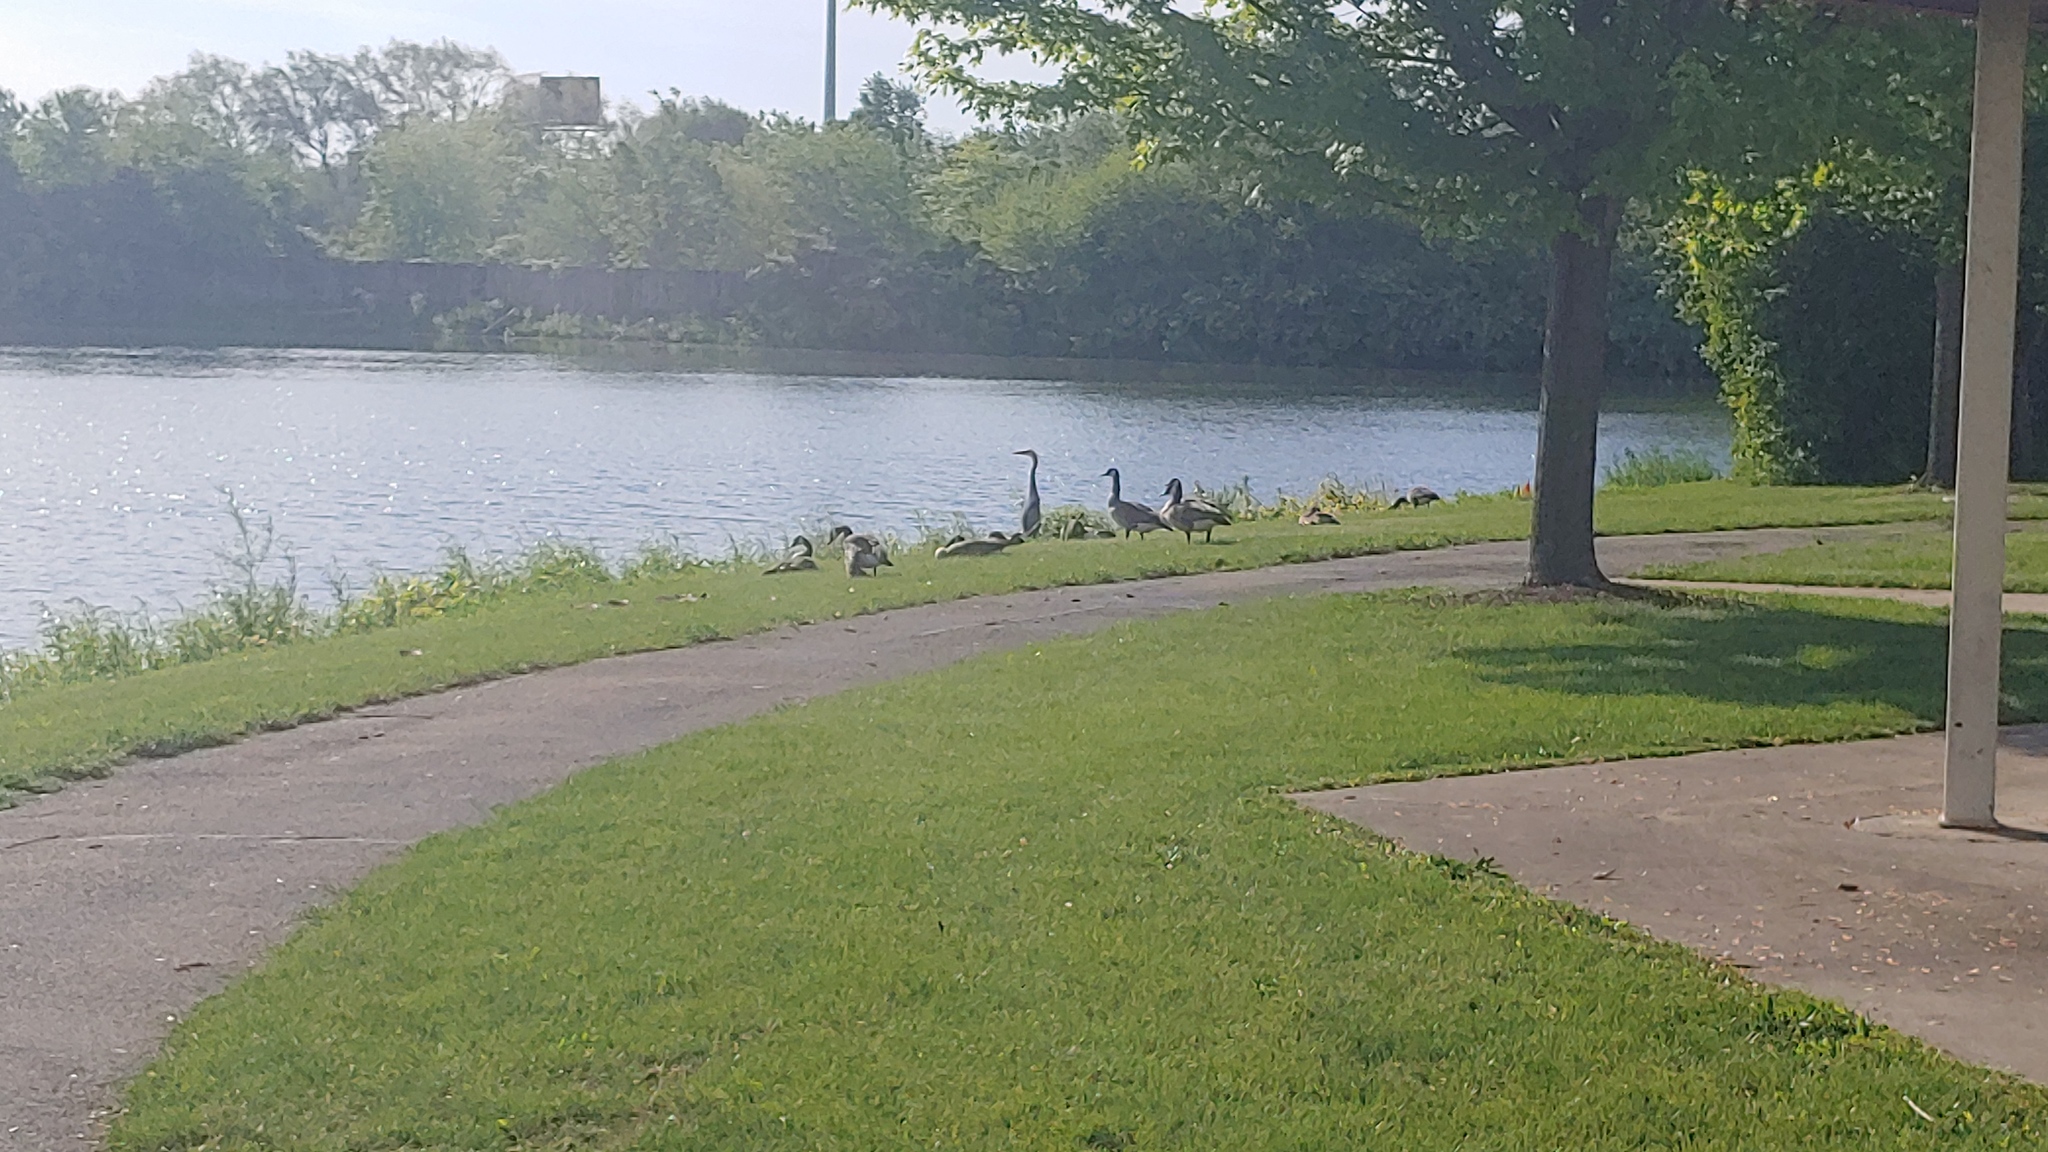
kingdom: Animalia
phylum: Chordata
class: Aves
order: Pelecaniformes
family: Ardeidae
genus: Ardea
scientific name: Ardea herodias
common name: Great blue heron
